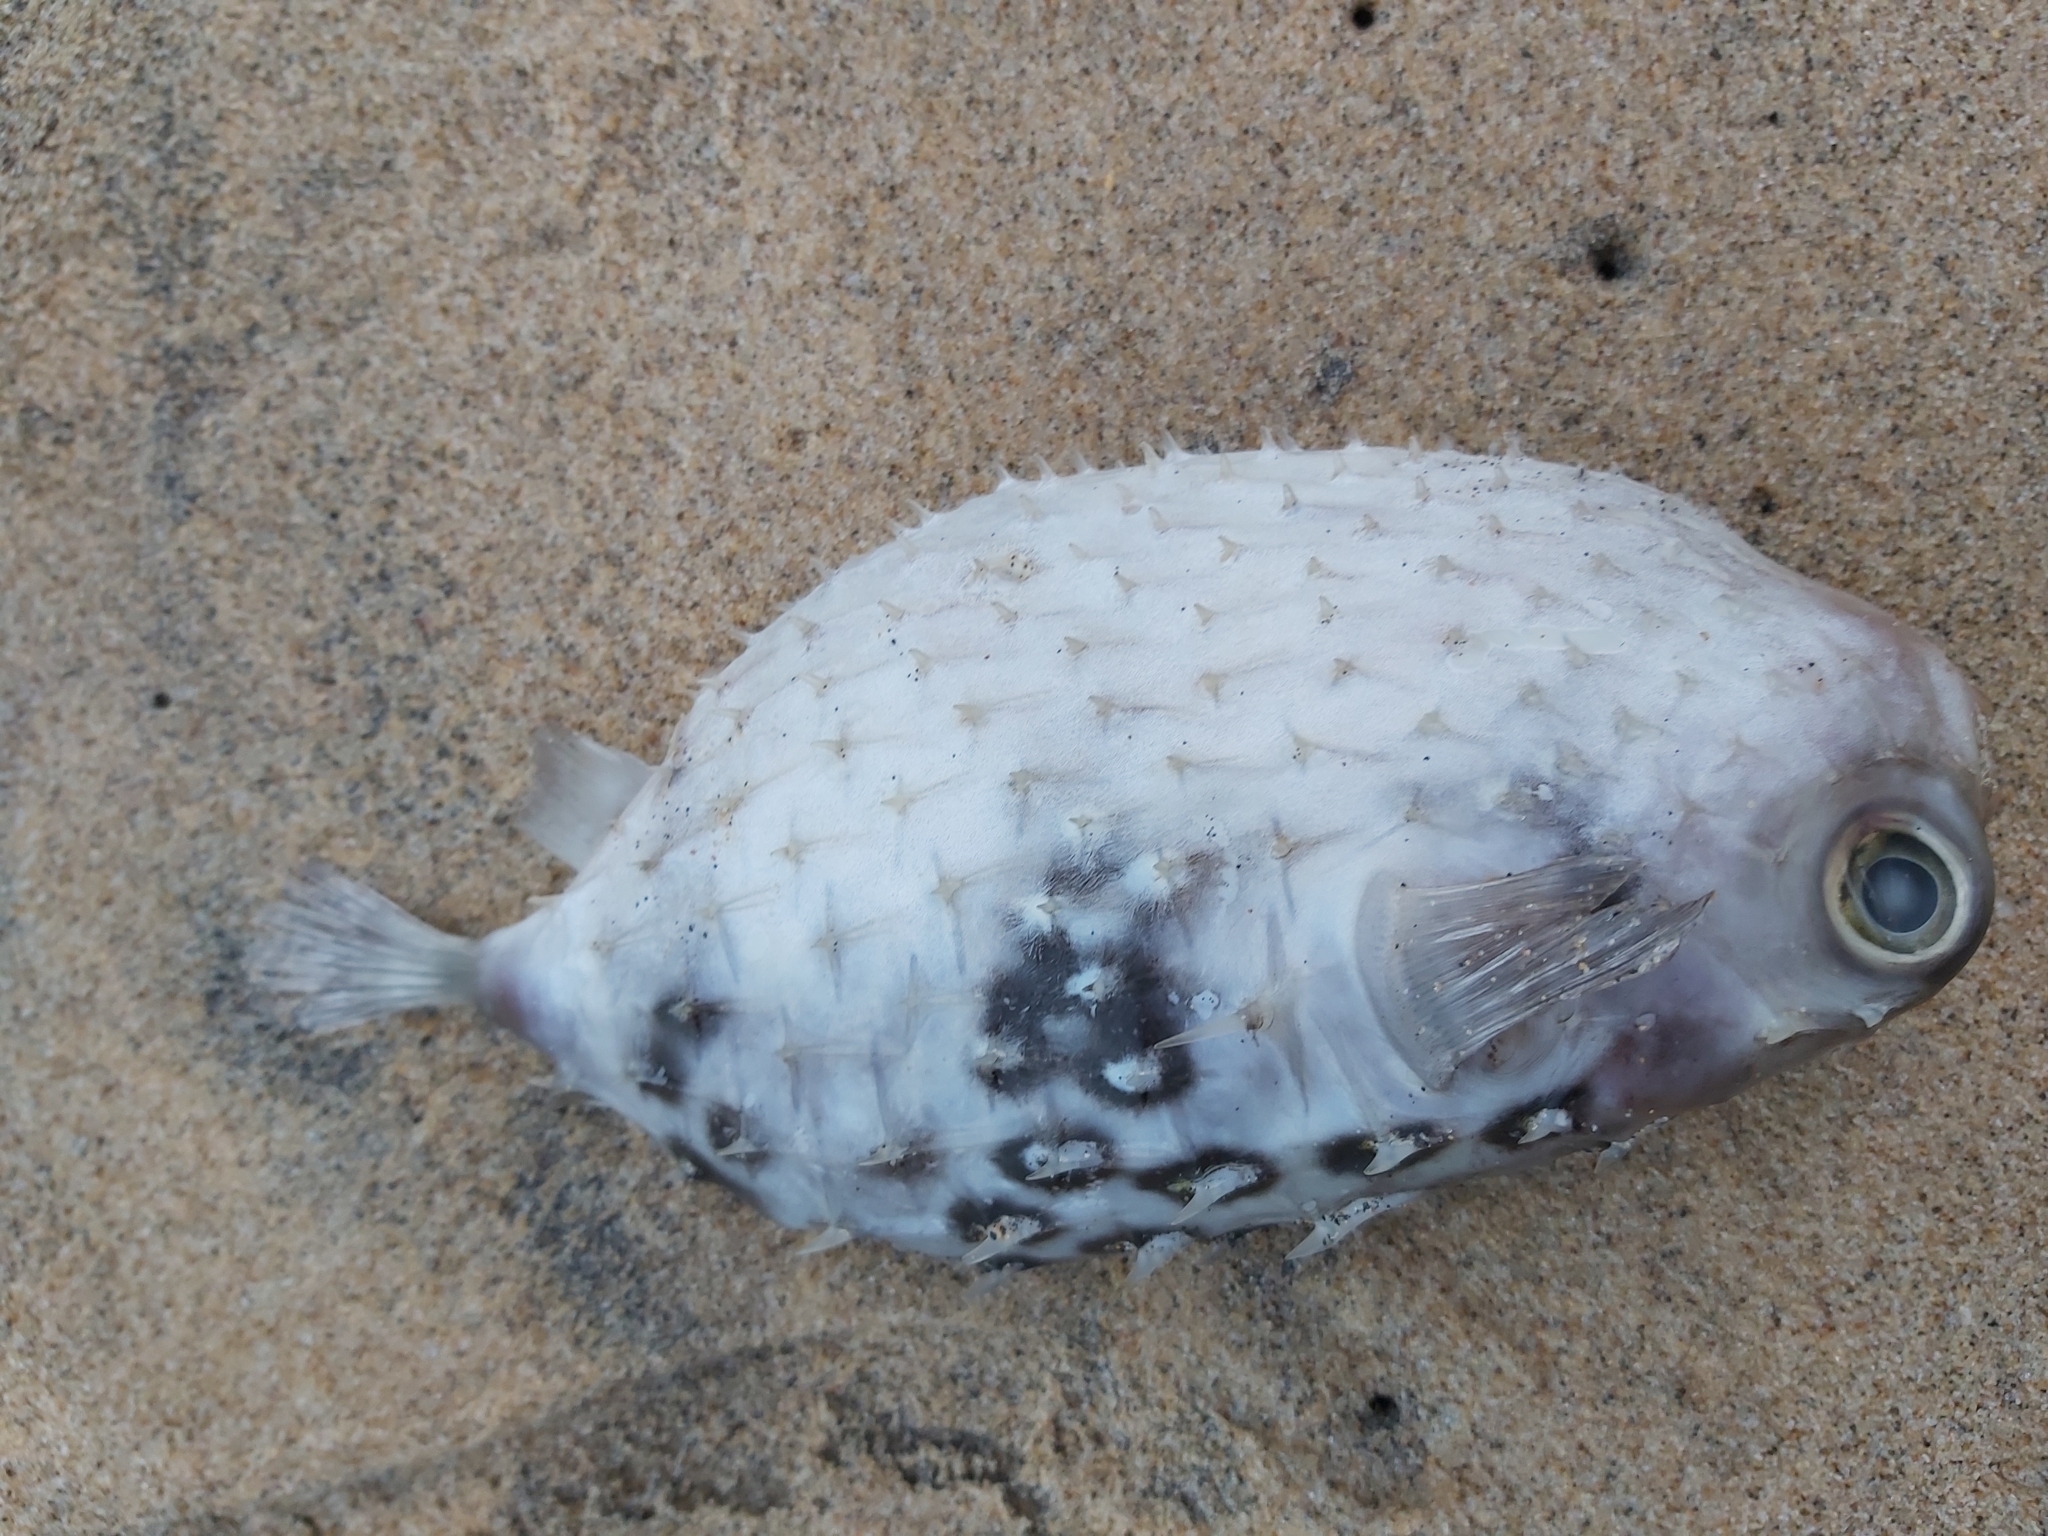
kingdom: Animalia
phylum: Chordata
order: Tetraodontiformes
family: Diodontidae
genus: Allomycterus
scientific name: Allomycterus pilatus
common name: No common name
